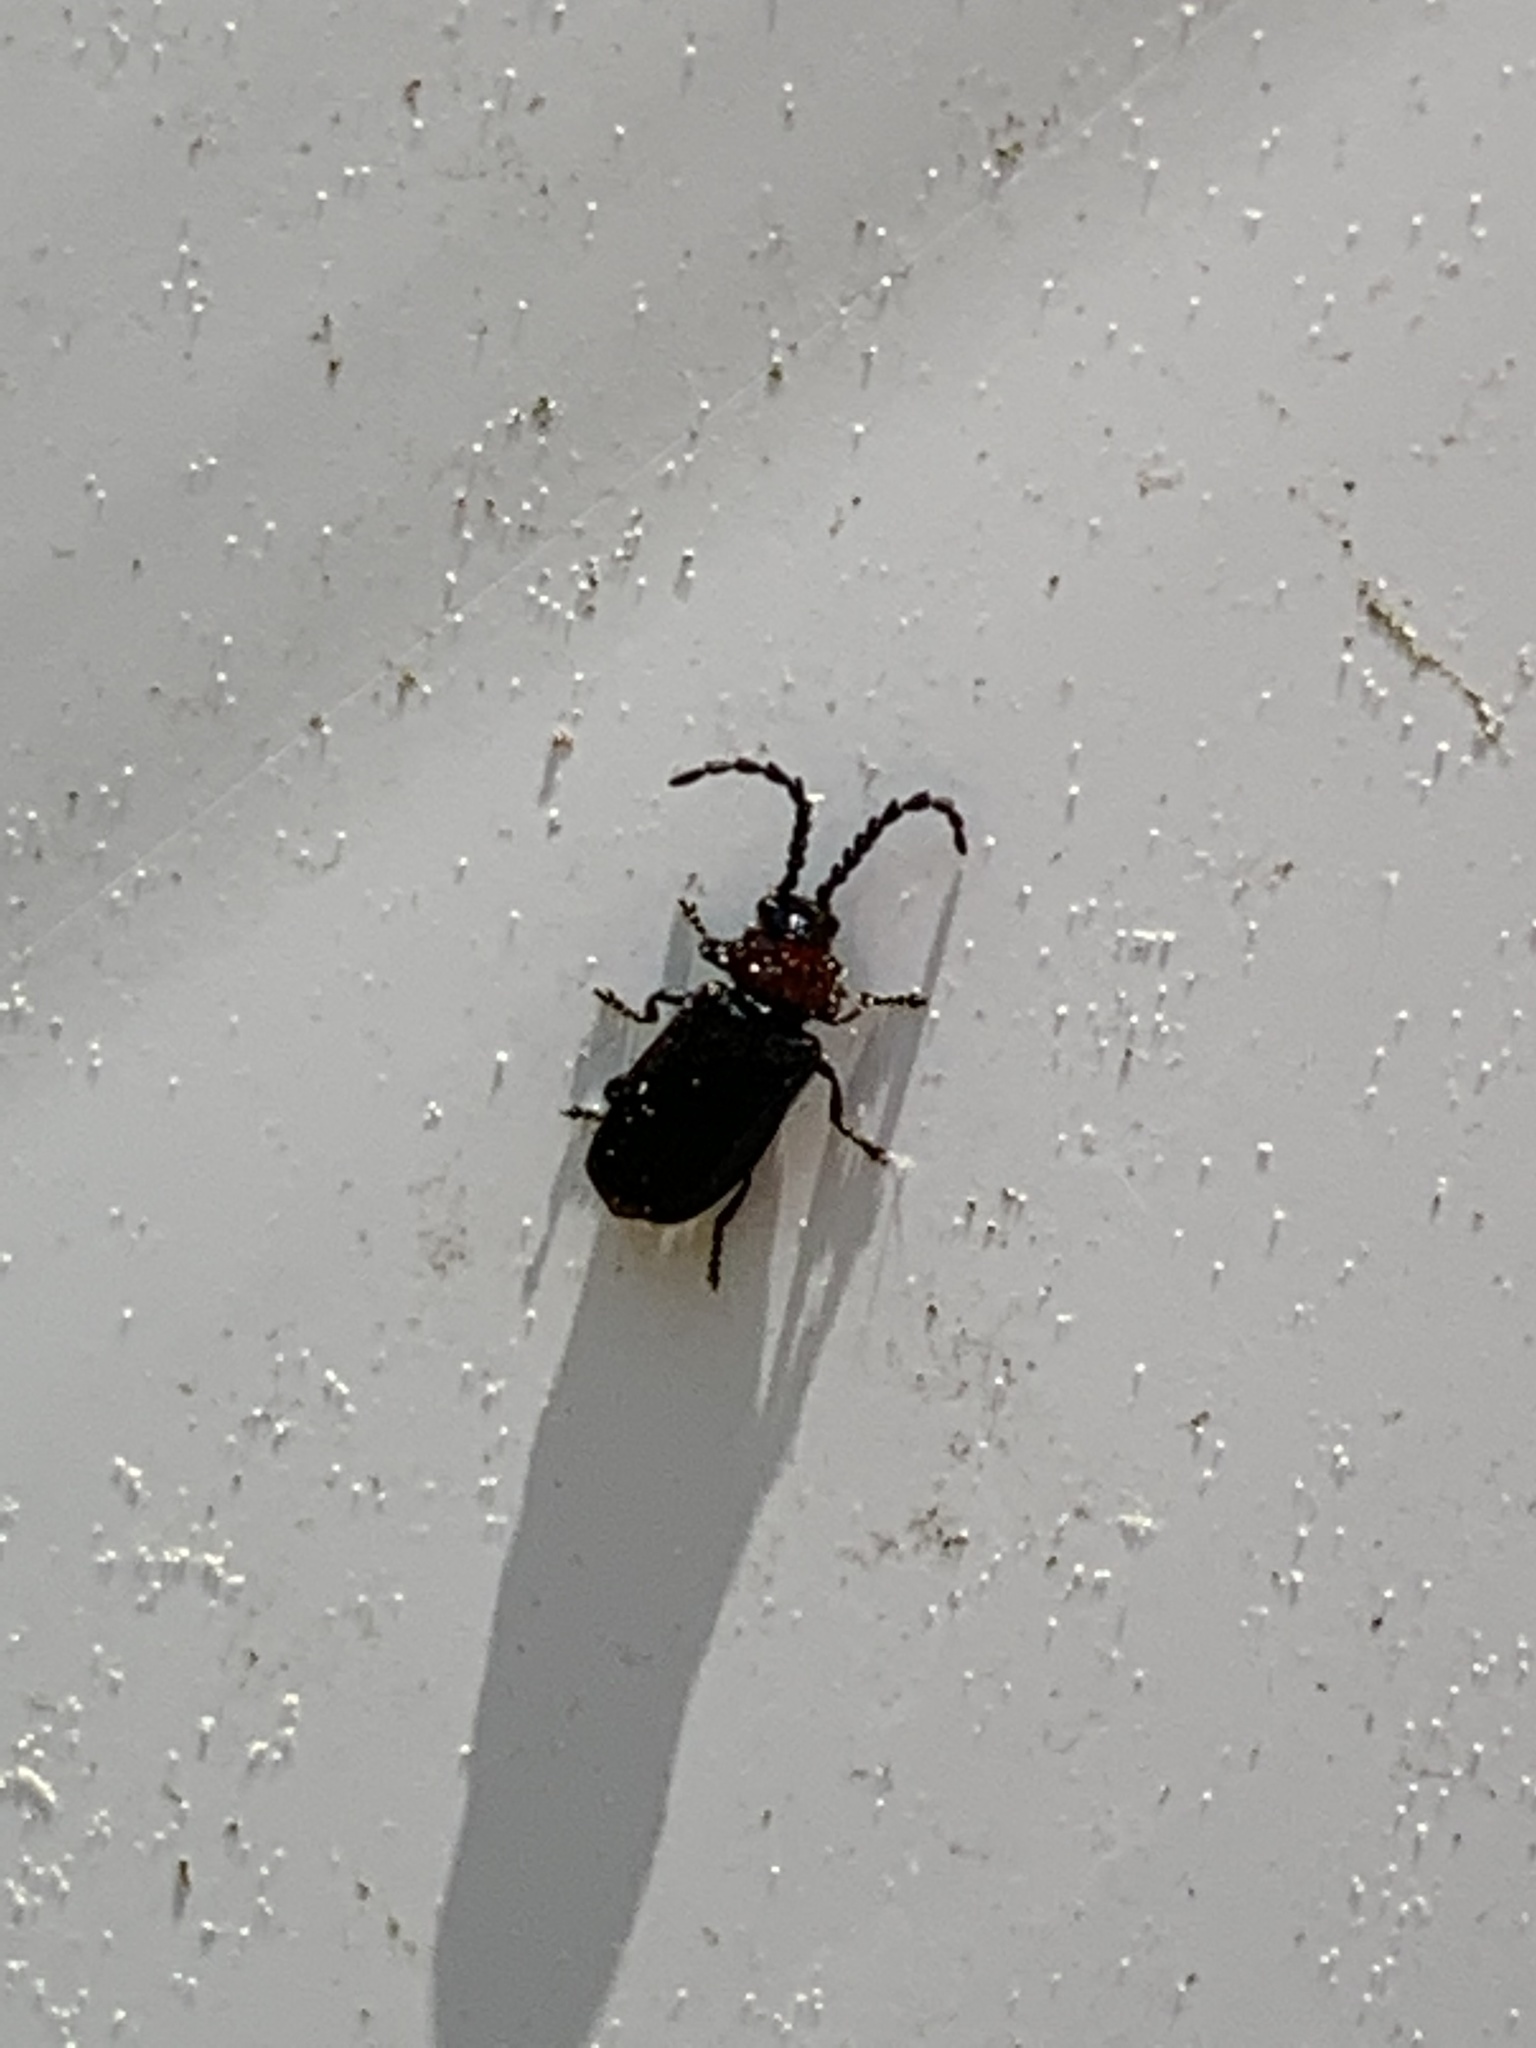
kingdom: Animalia
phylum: Arthropoda
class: Insecta
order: Coleoptera
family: Cantharidae
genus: Ditemnus
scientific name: Ditemnus bidentatus
